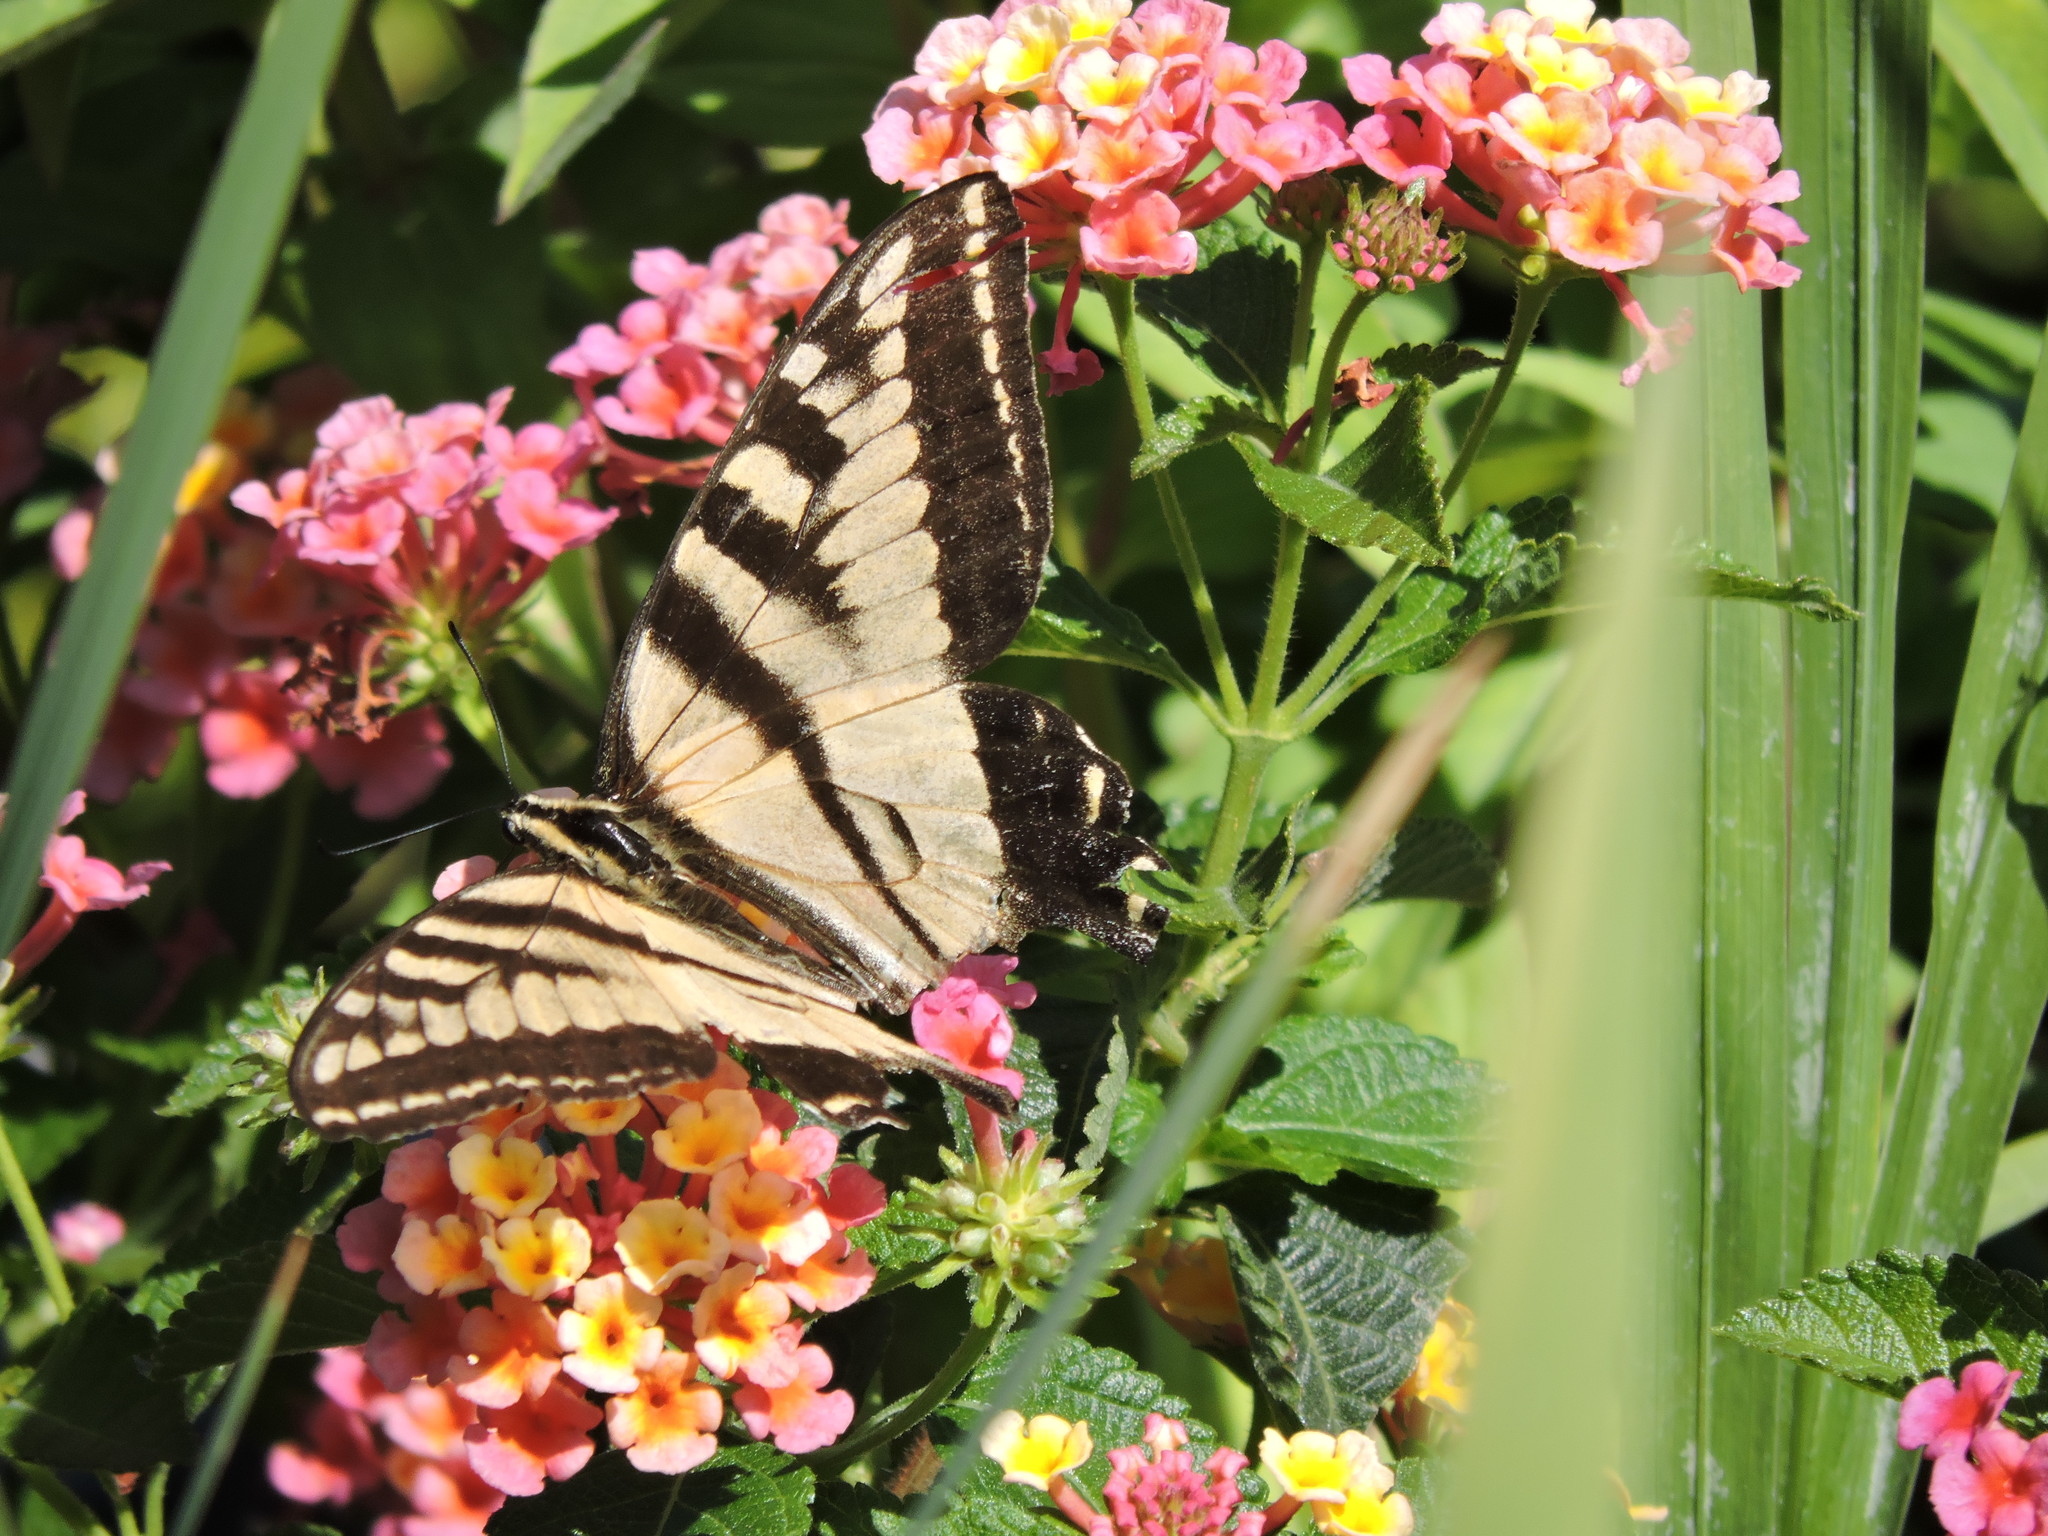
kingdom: Animalia
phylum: Arthropoda
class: Insecta
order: Lepidoptera
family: Papilionidae
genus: Papilio
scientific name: Papilio rutulus
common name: Western tiger swallowtail
